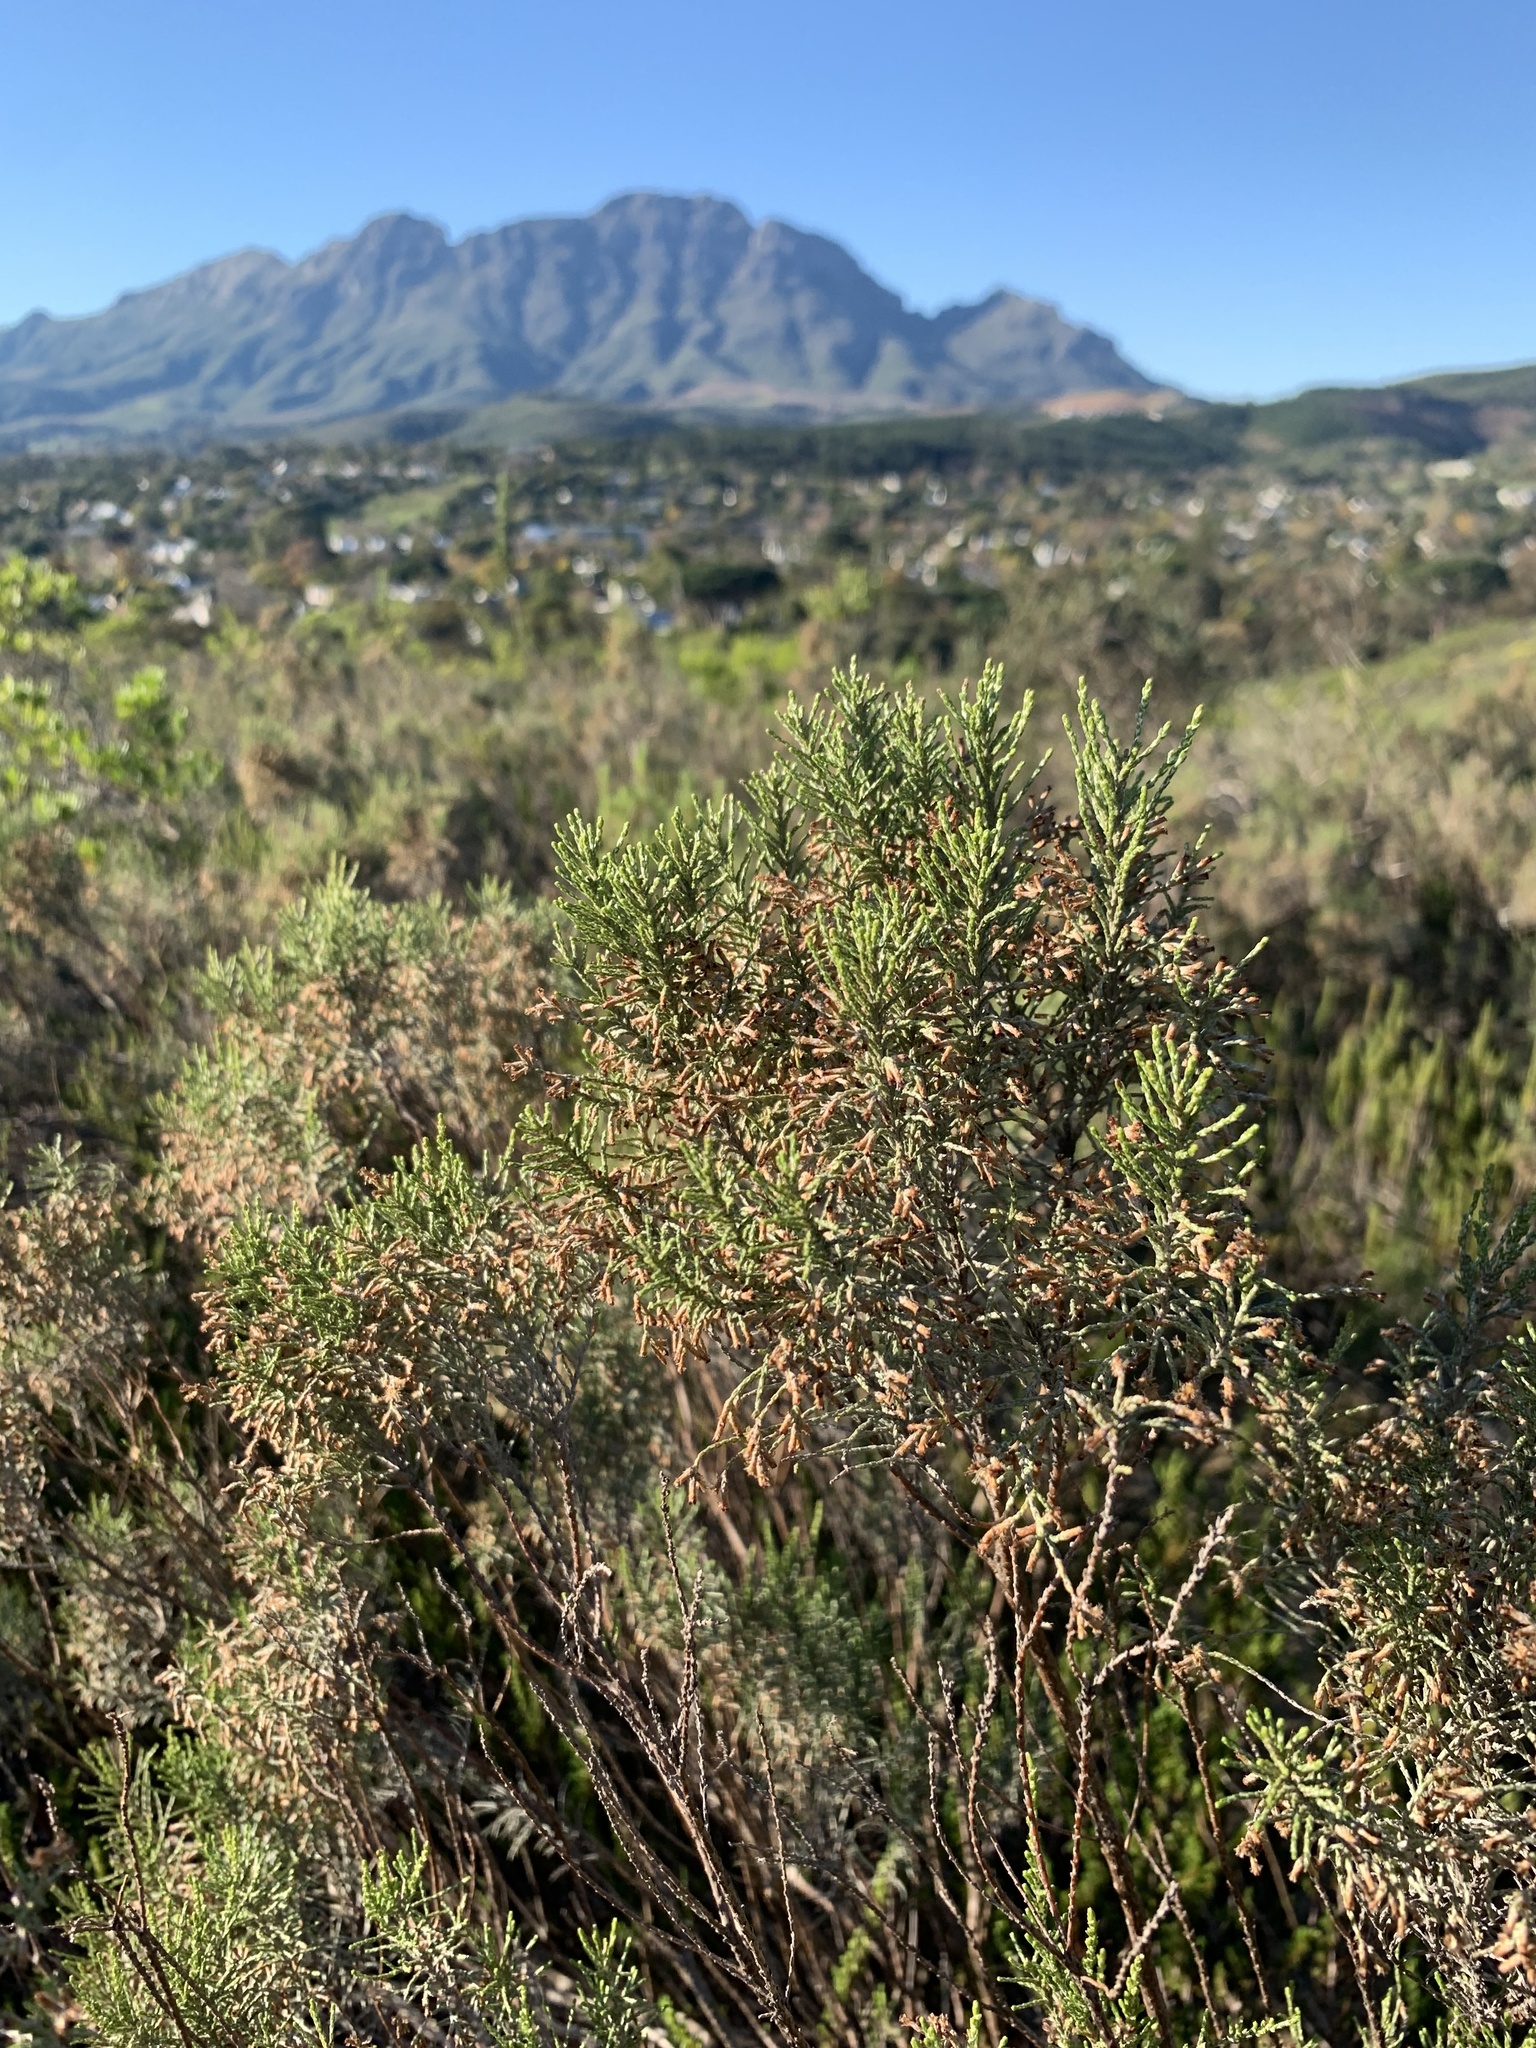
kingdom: Plantae
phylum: Tracheophyta
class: Magnoliopsida
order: Asterales
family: Asteraceae
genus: Dicerothamnus
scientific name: Dicerothamnus rhinocerotis
